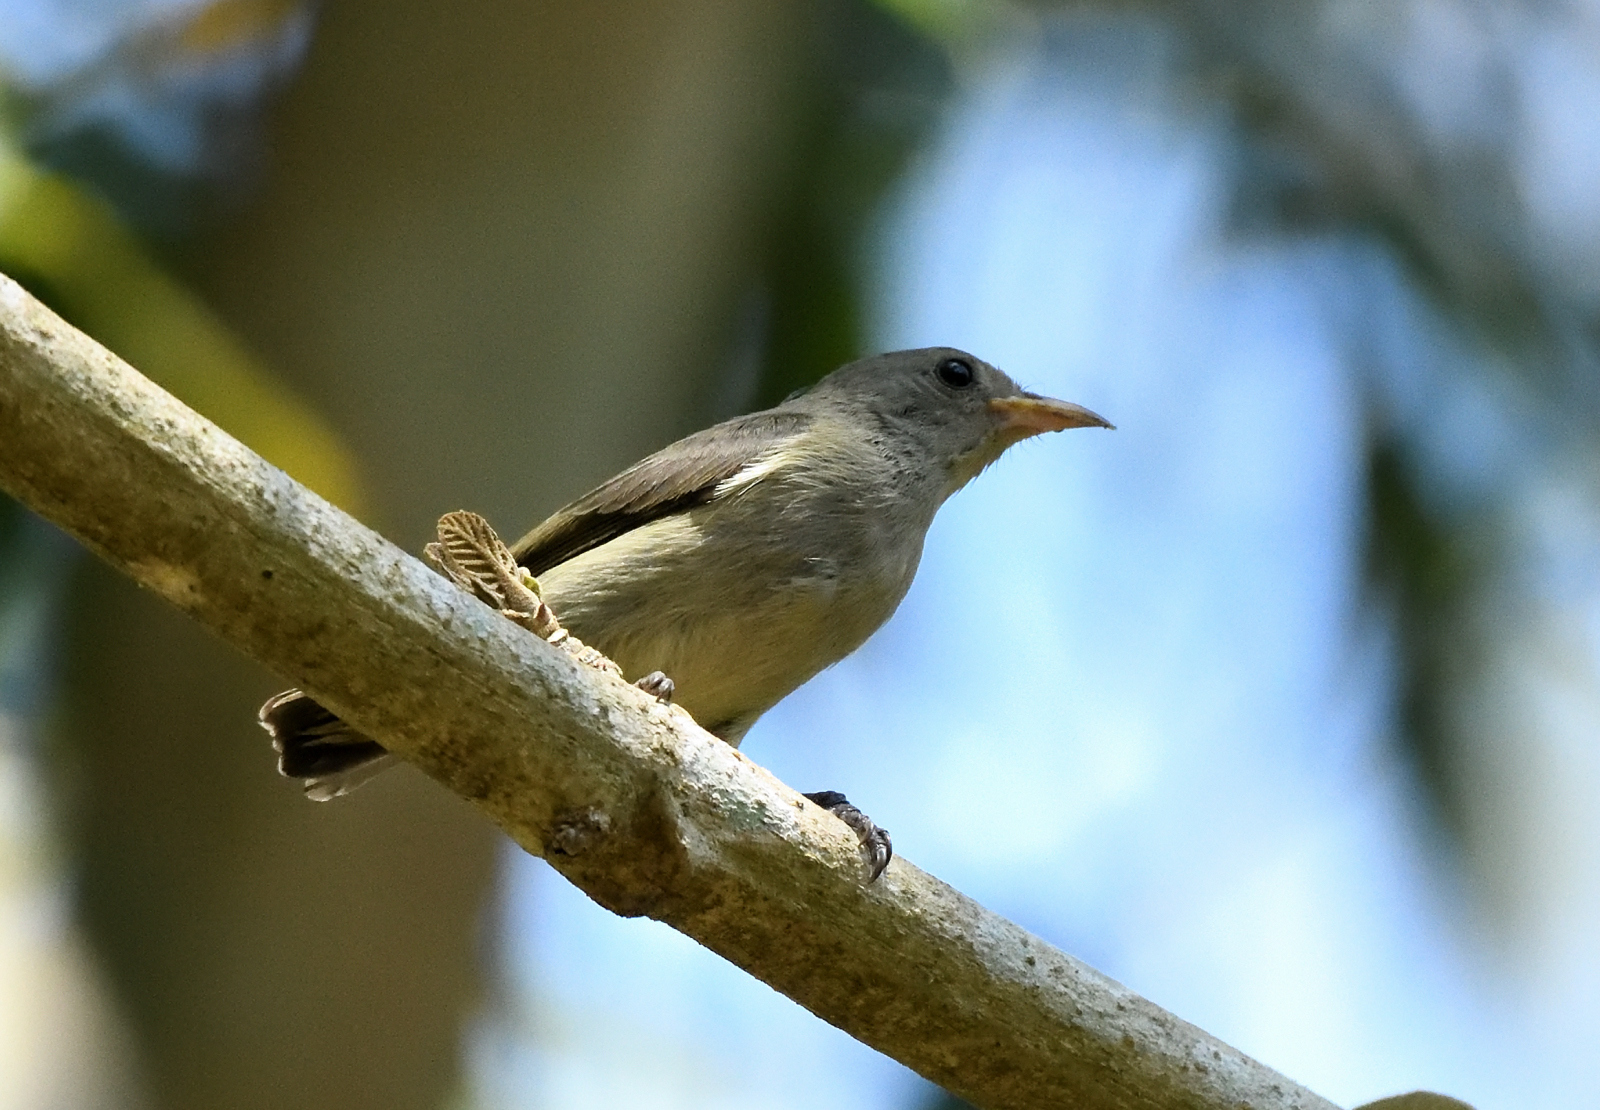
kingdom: Animalia
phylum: Chordata
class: Aves
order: Passeriformes
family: Dicaeidae
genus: Dicaeum
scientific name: Dicaeum erythrorhynchos
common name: Pale-billed flowerpecker
